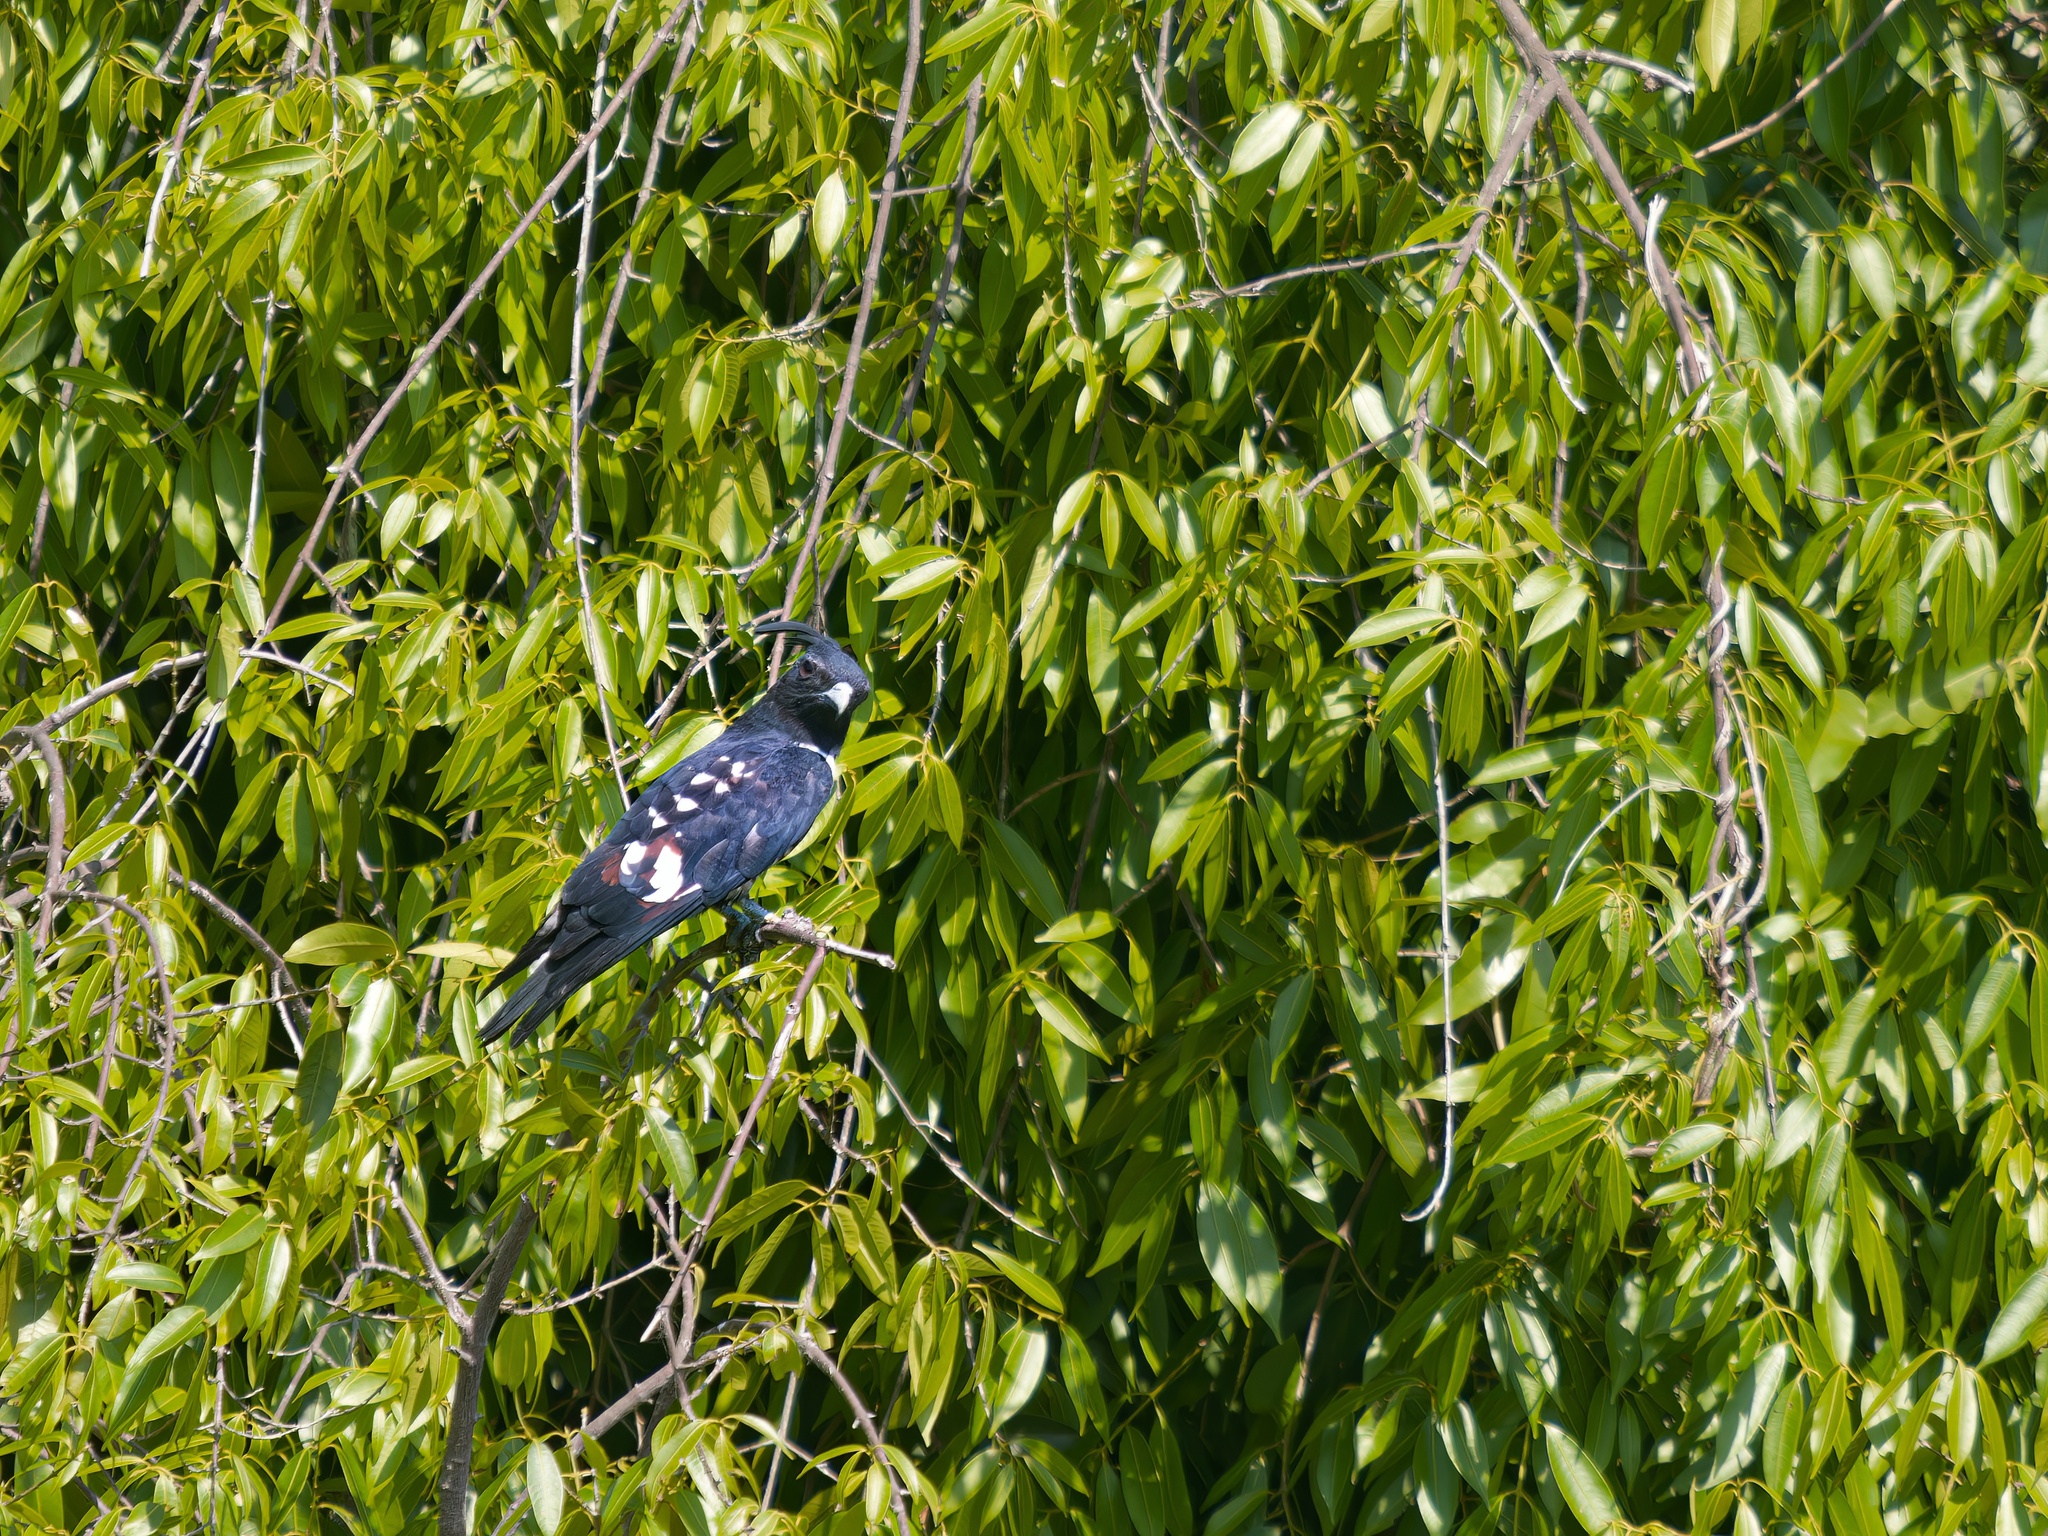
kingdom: Animalia
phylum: Chordata
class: Aves
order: Accipitriformes
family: Accipitridae
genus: Aviceda
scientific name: Aviceda leuphotes
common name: Black baza
